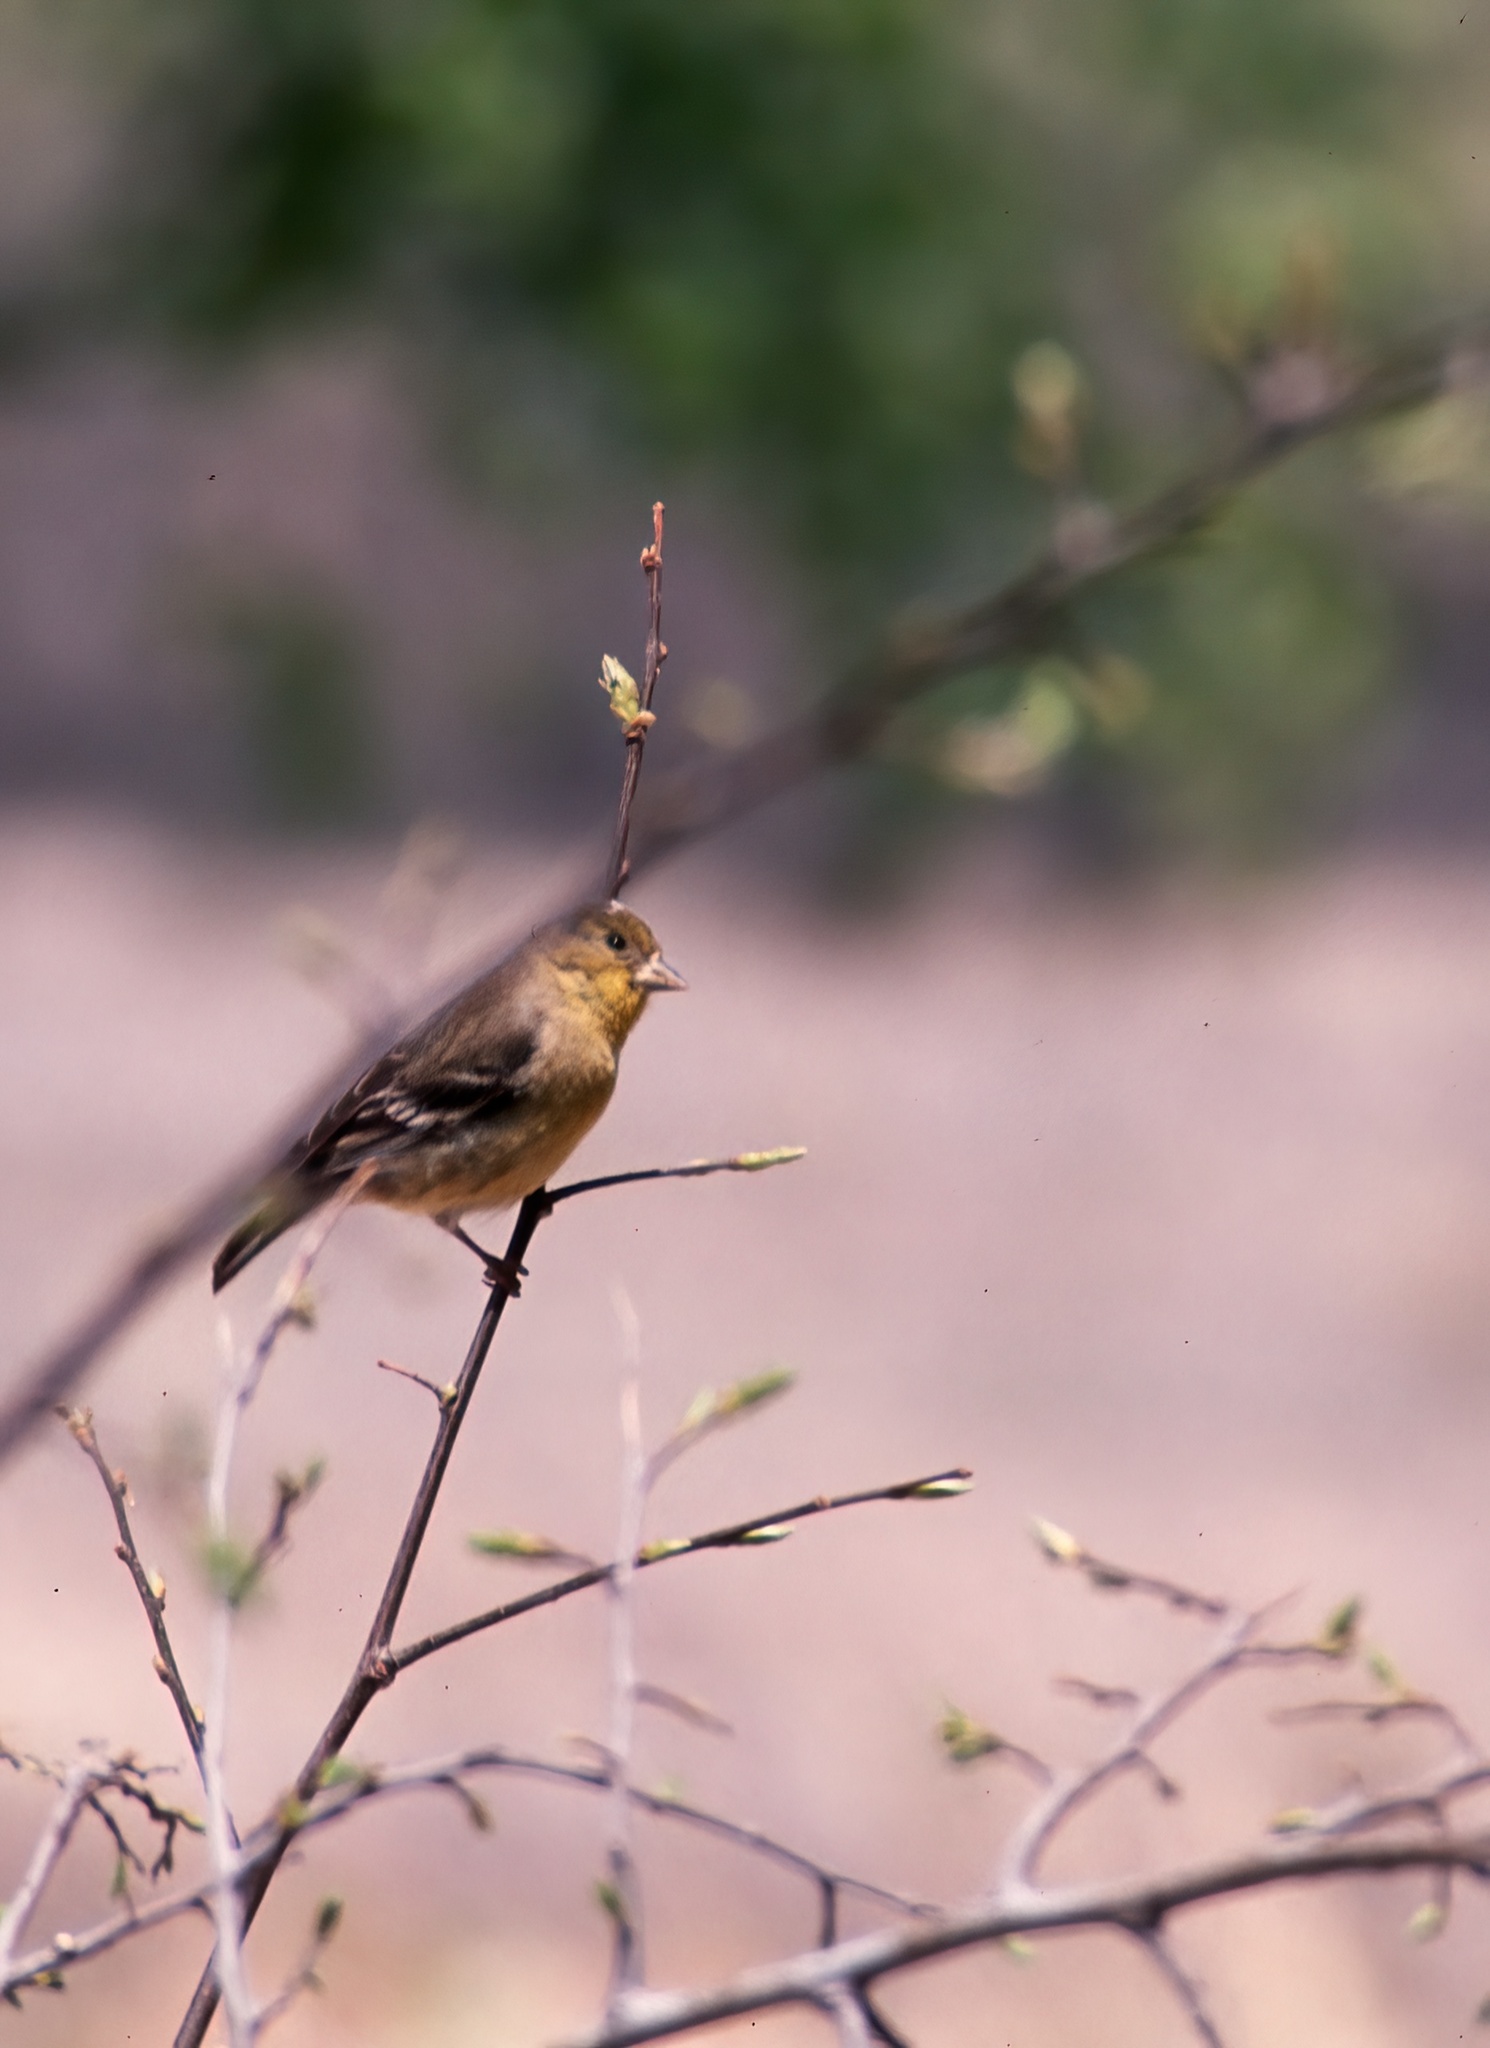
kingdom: Animalia
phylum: Chordata
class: Aves
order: Passeriformes
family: Fringillidae
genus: Spinus
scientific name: Spinus psaltria
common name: Lesser goldfinch
